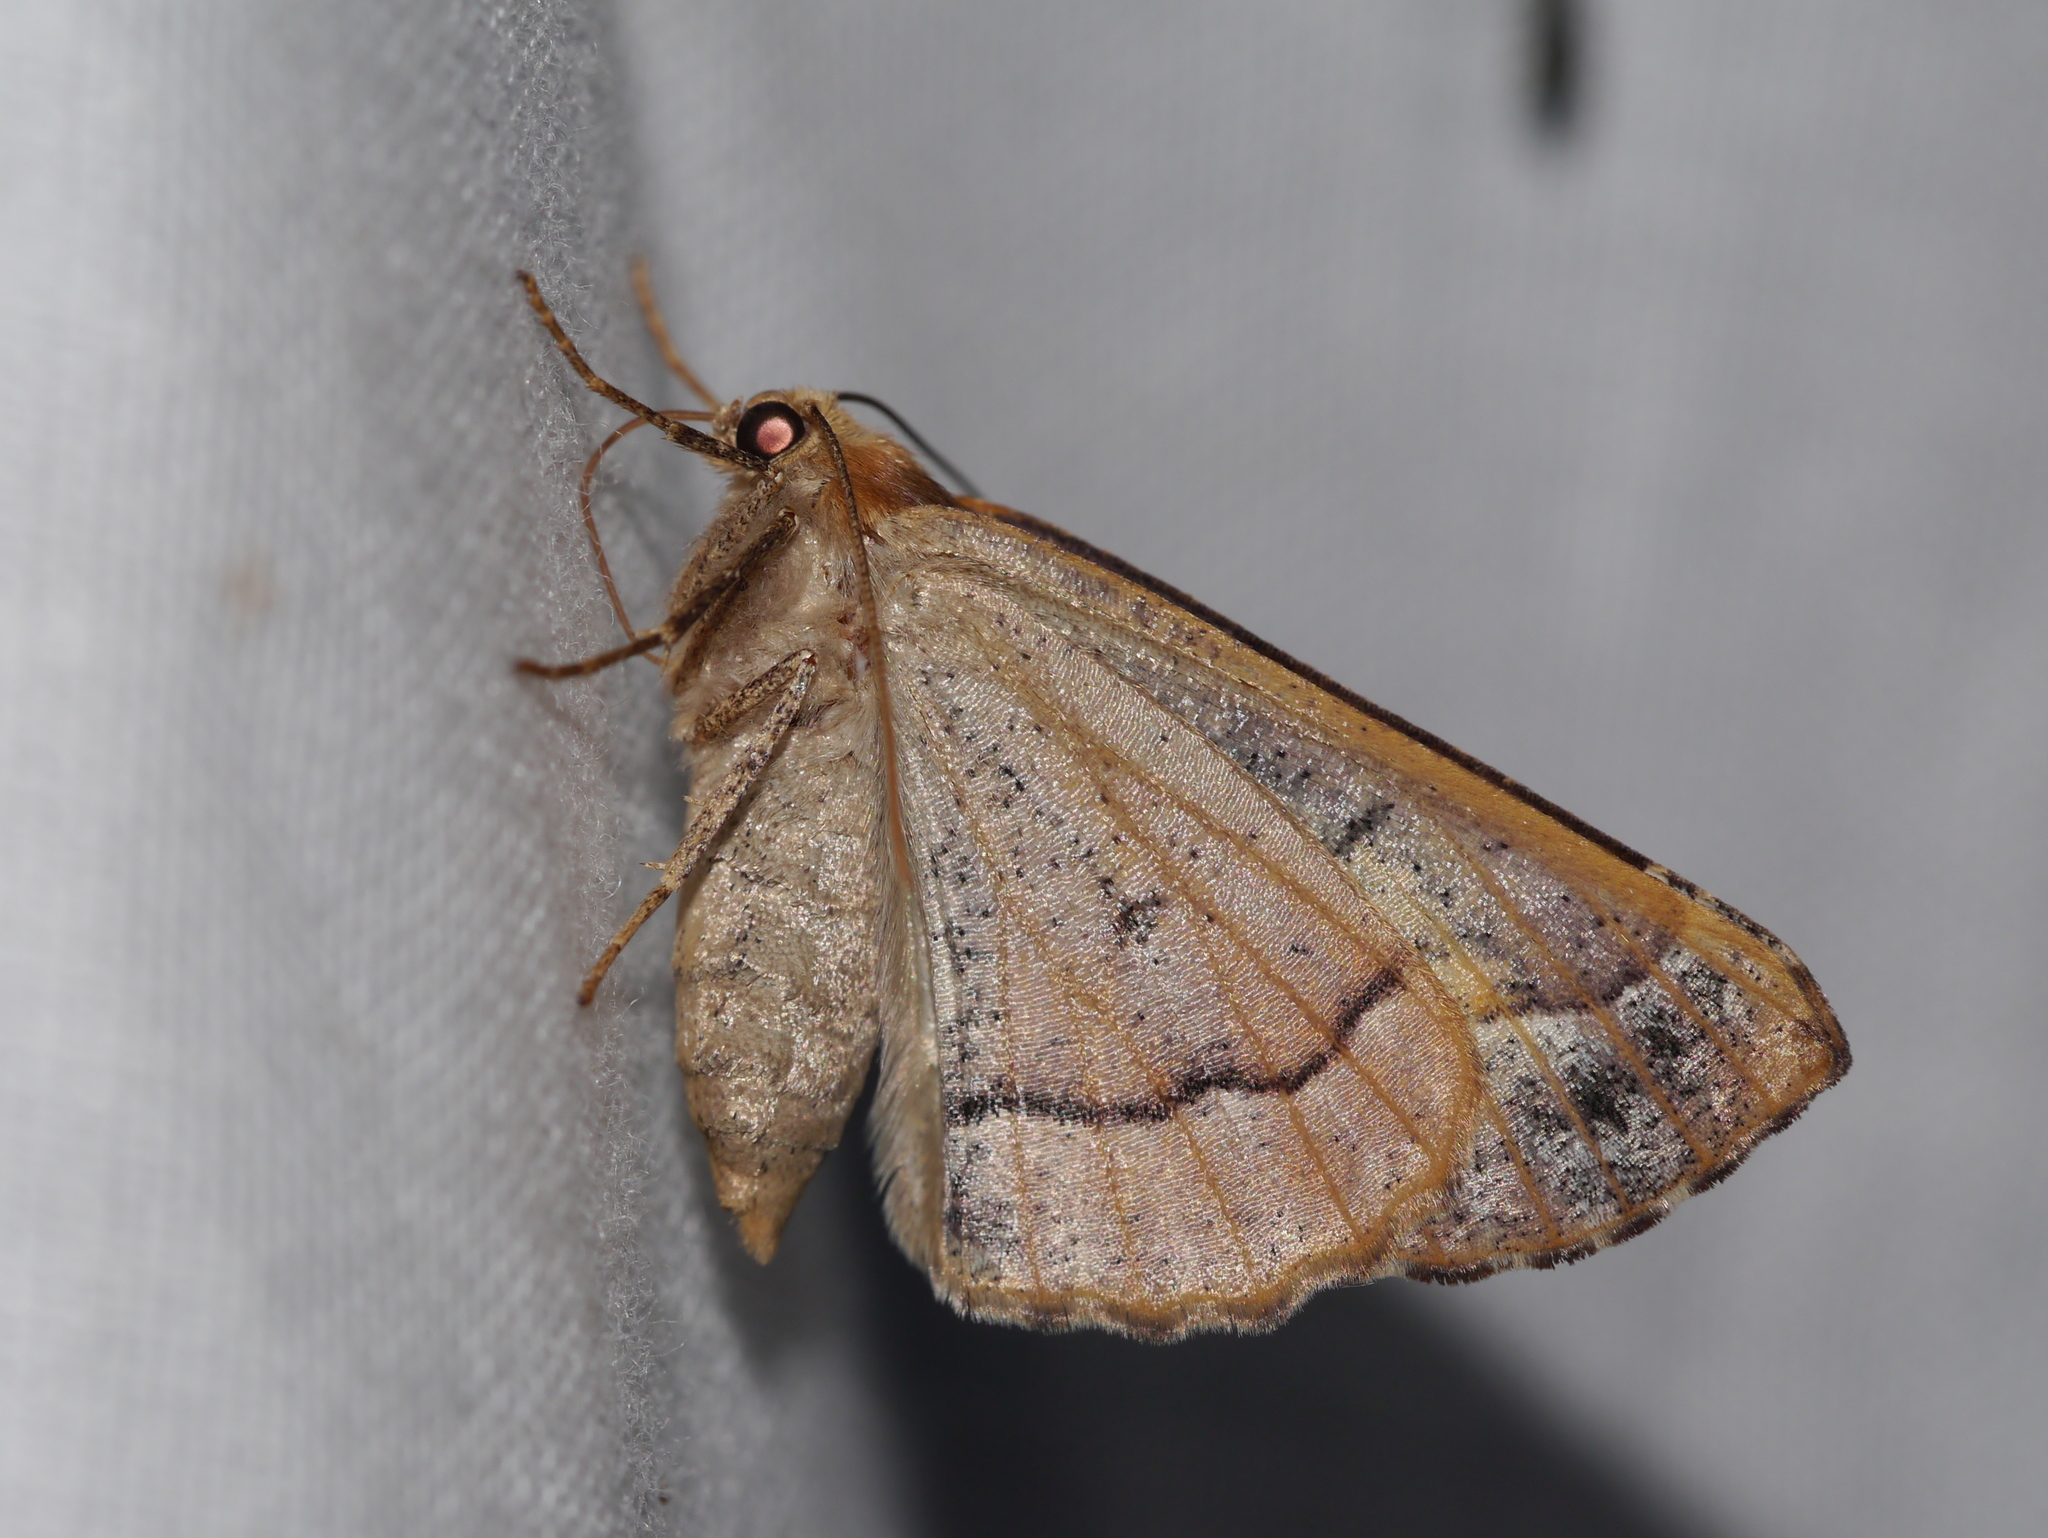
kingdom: Animalia
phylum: Arthropoda
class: Insecta
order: Lepidoptera
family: Geometridae
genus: Caripeta
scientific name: Caripeta pulcherrima
